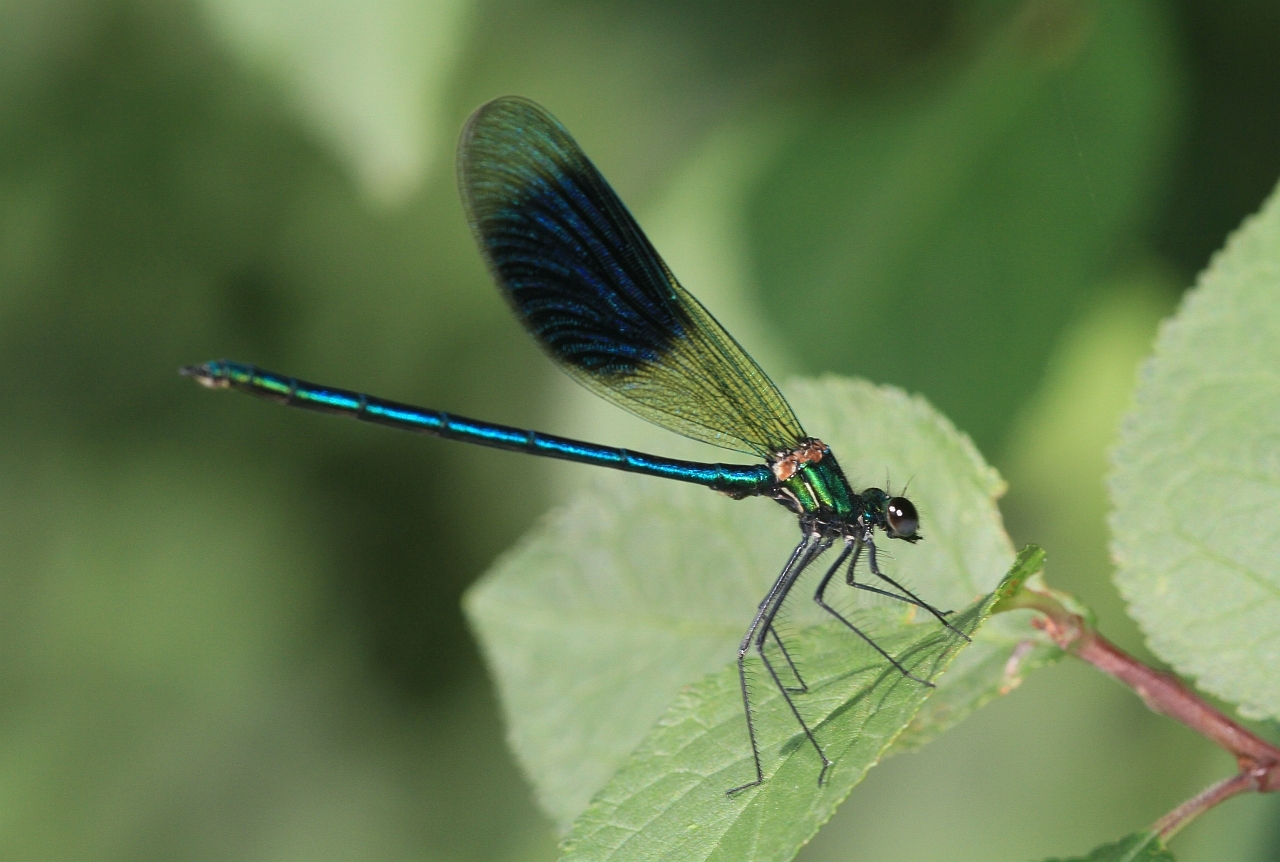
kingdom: Animalia
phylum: Arthropoda
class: Insecta
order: Odonata
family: Calopterygidae
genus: Calopteryx
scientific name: Calopteryx splendens
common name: Banded demoiselle
